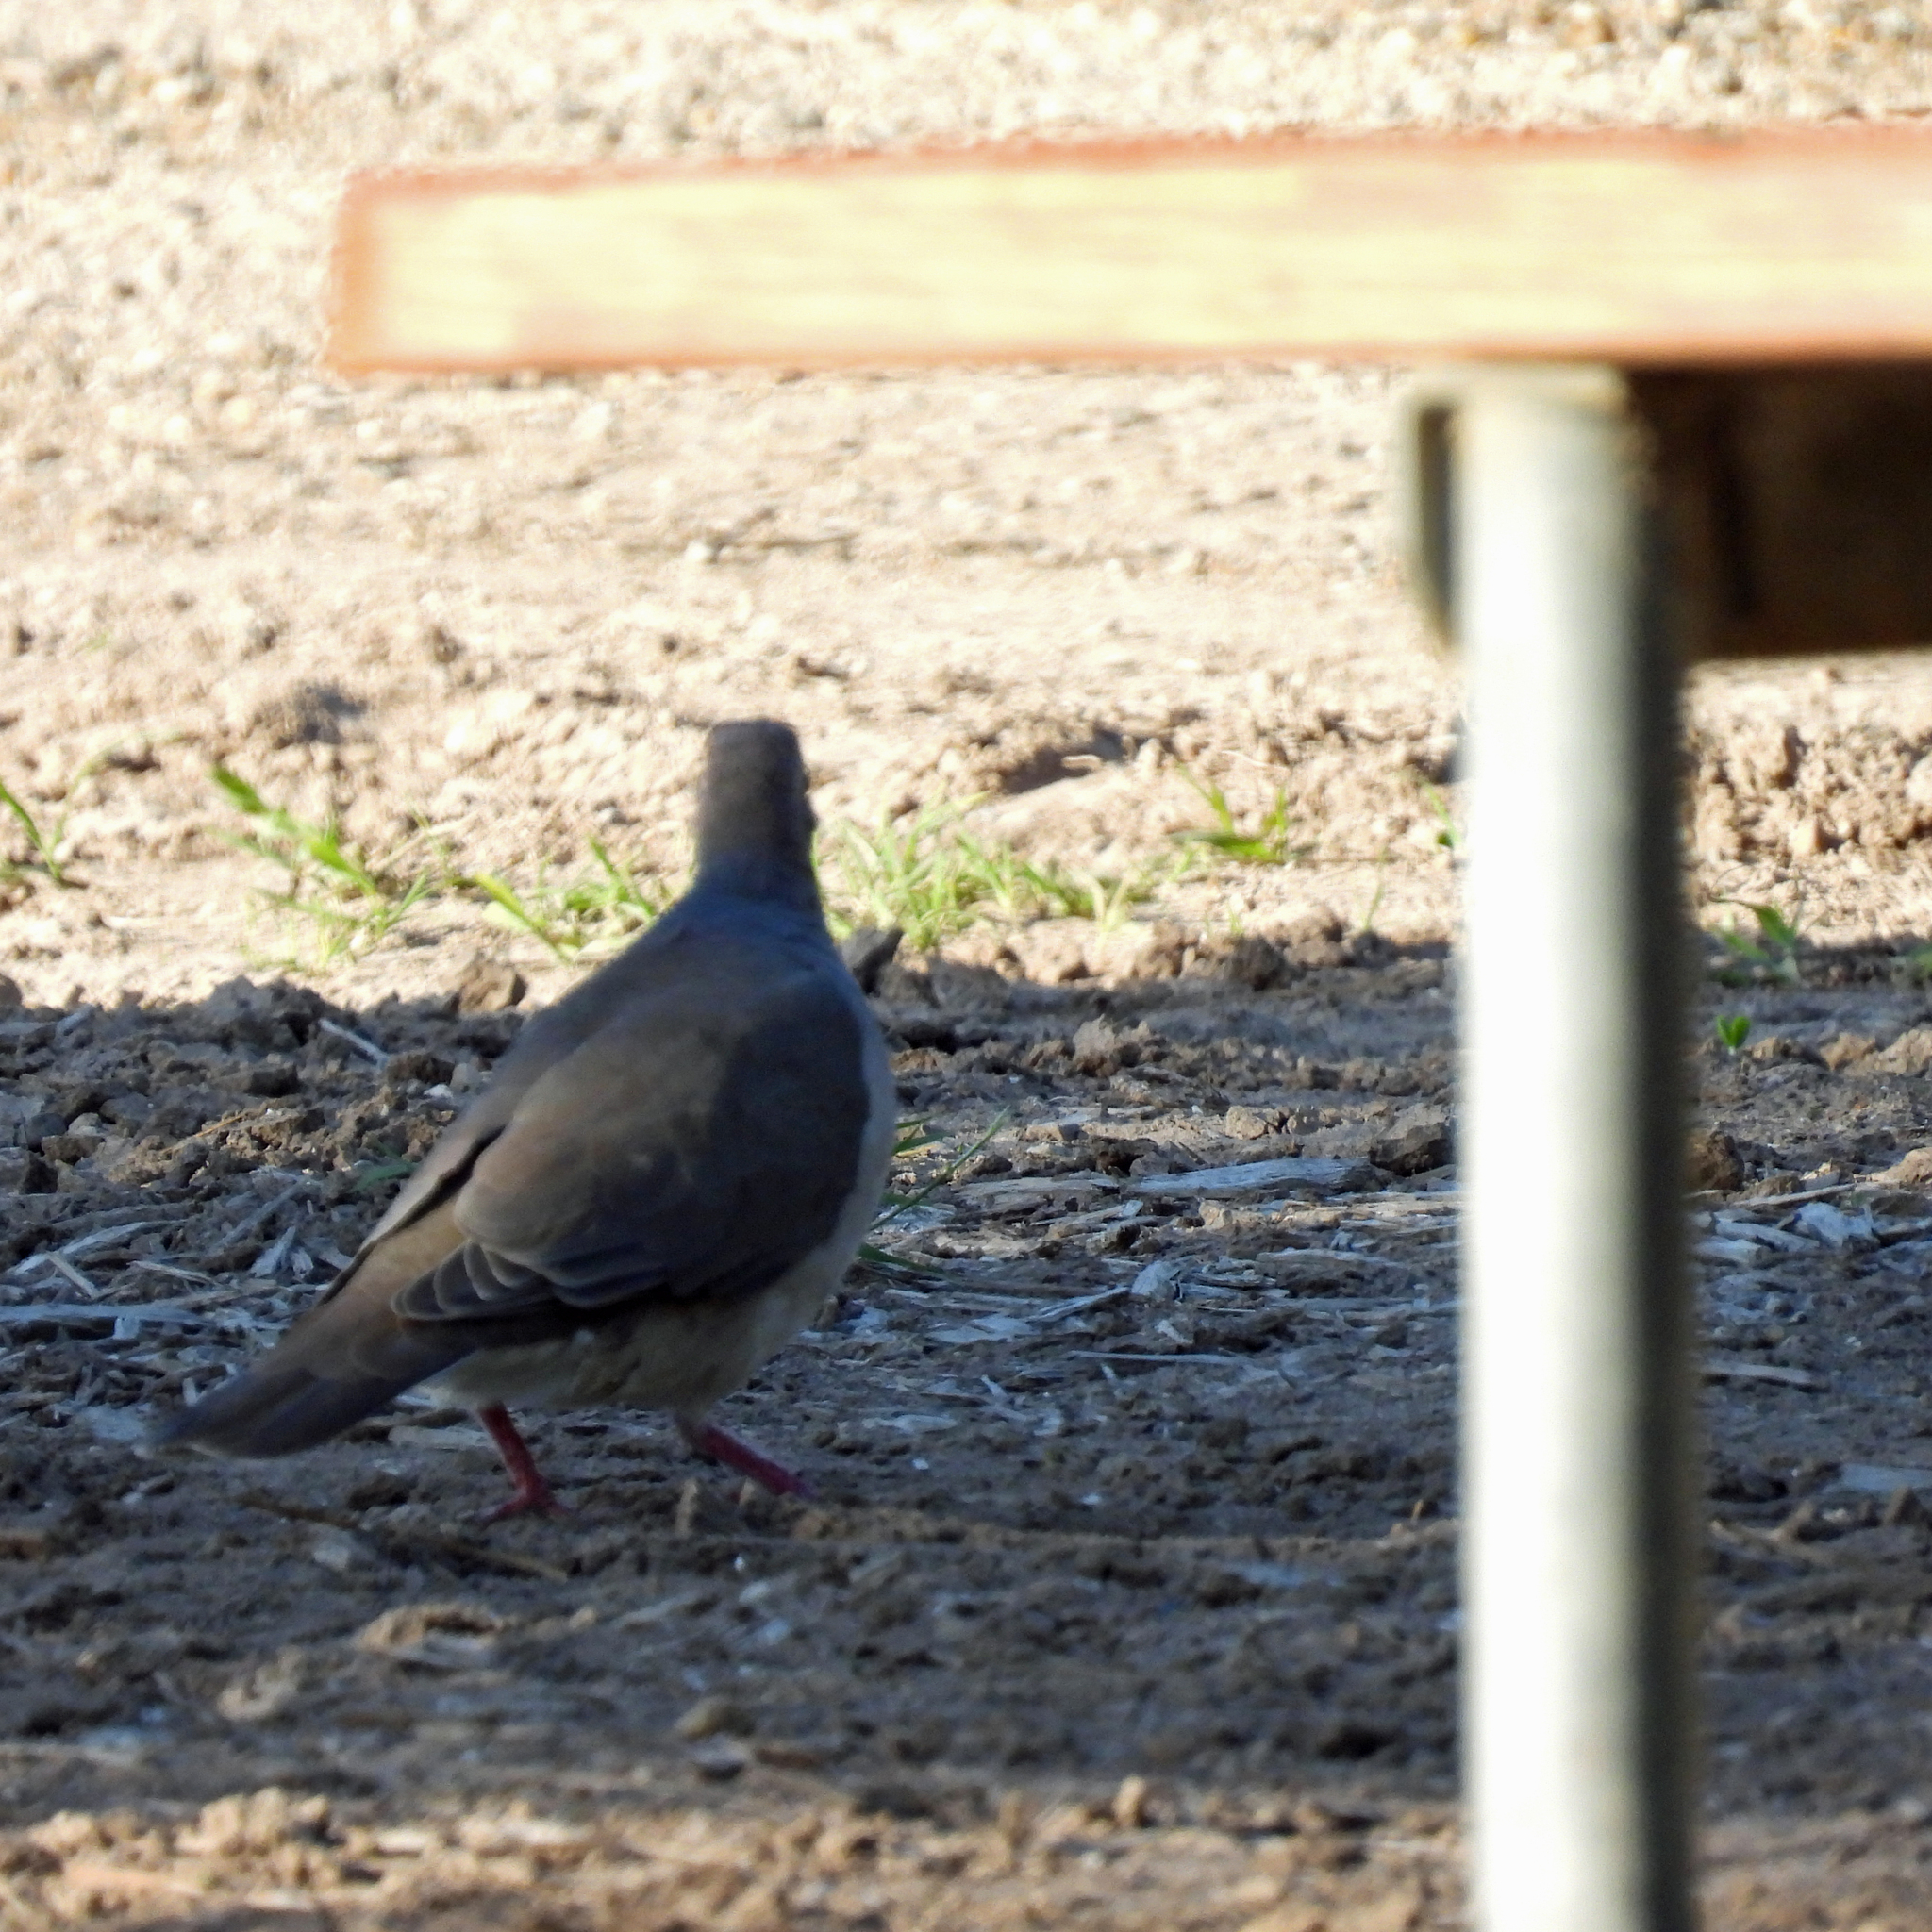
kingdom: Animalia
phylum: Chordata
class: Aves
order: Columbiformes
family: Columbidae
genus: Leptotila
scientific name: Leptotila verreauxi
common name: White-tipped dove
